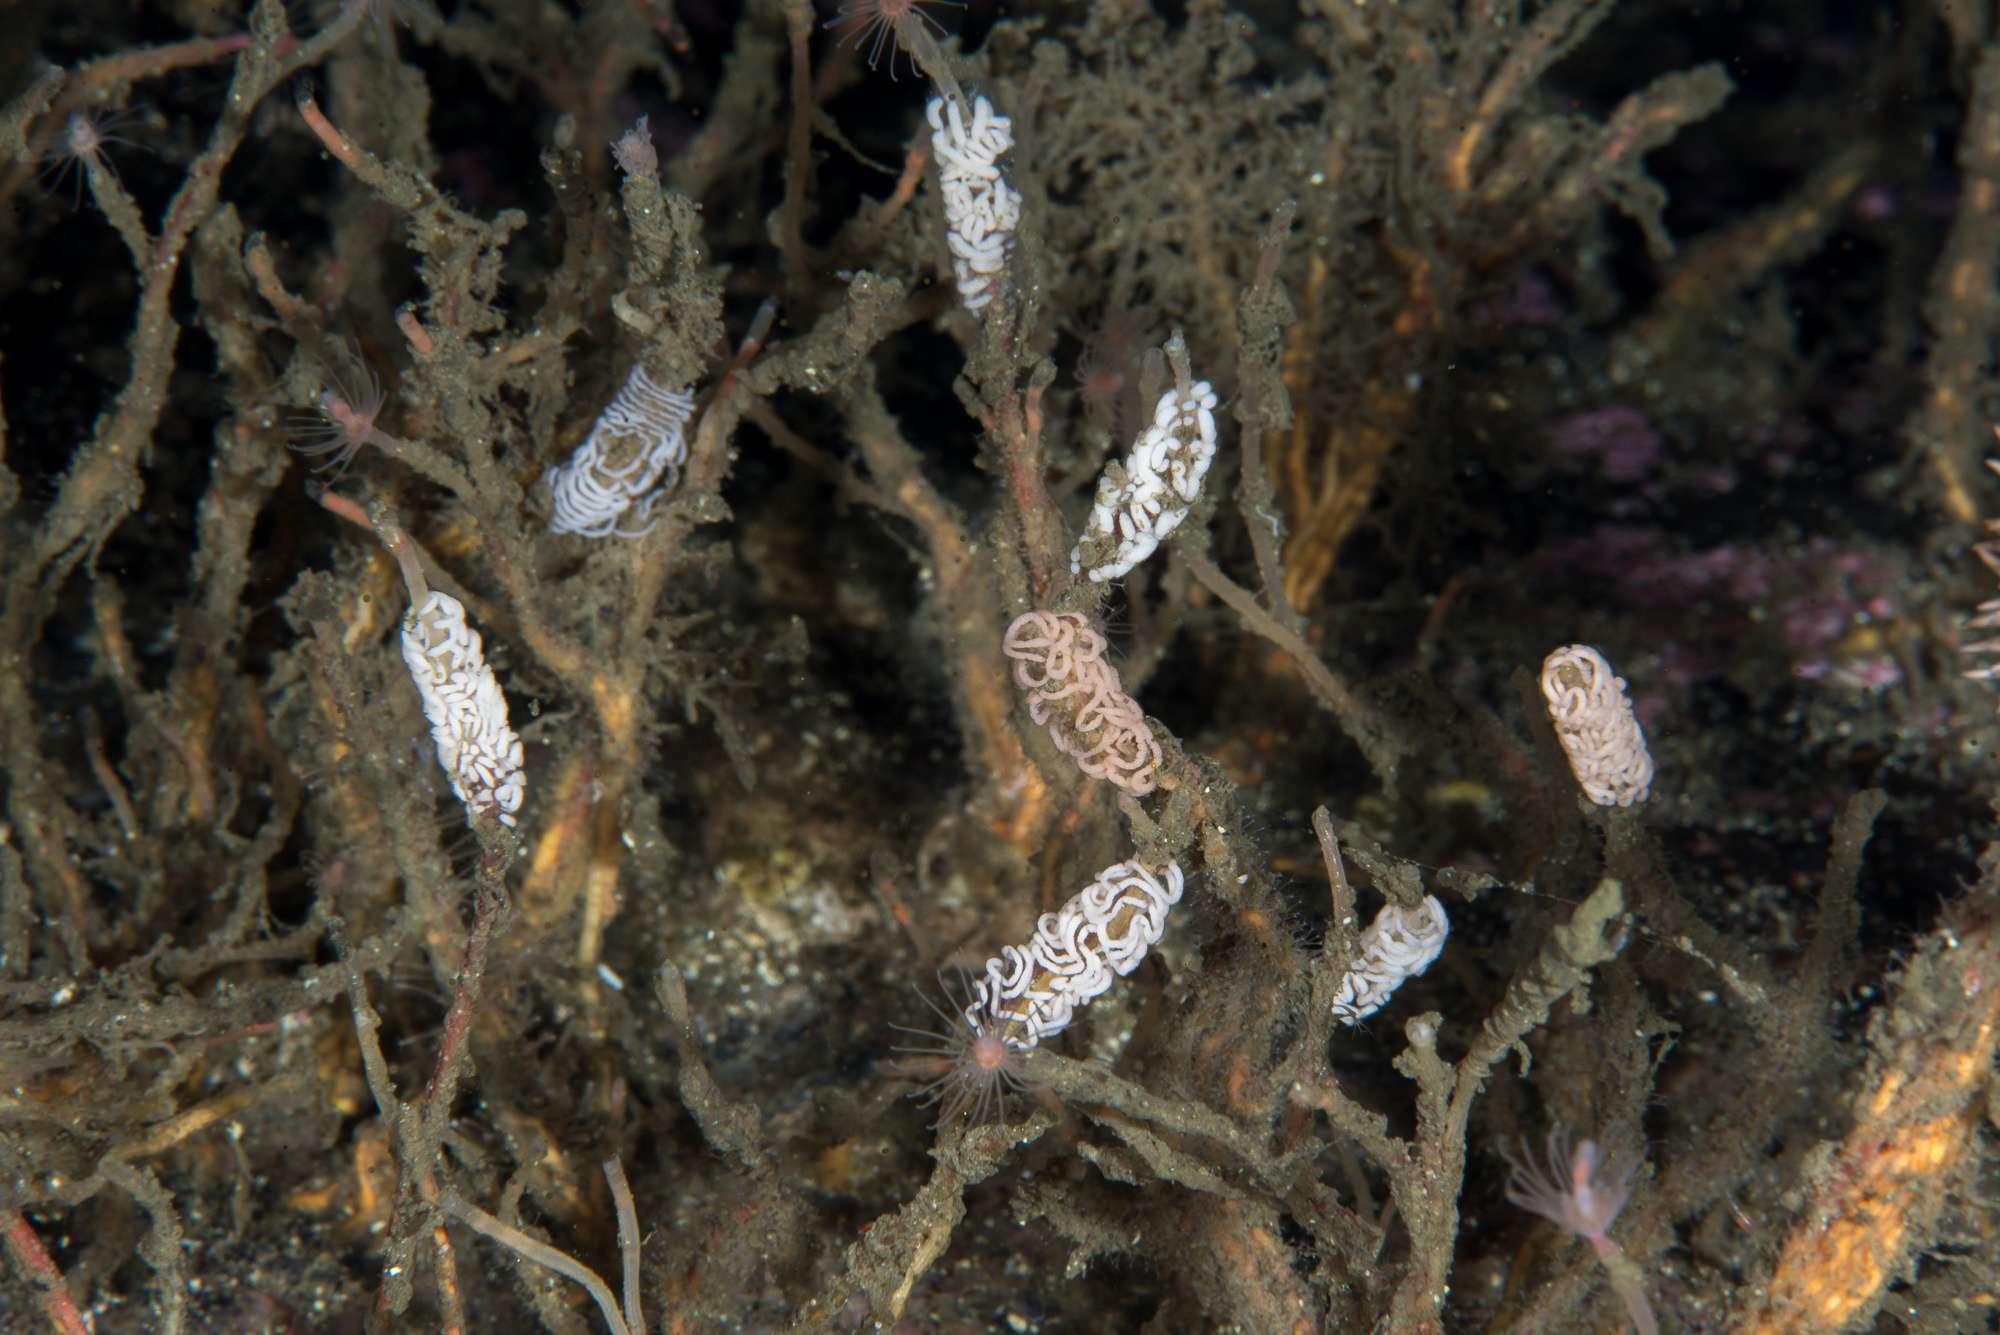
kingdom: Animalia
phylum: Mollusca
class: Gastropoda
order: Nudibranchia
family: Coryphellidae
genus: Coryphella
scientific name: Coryphella chriskaugei
